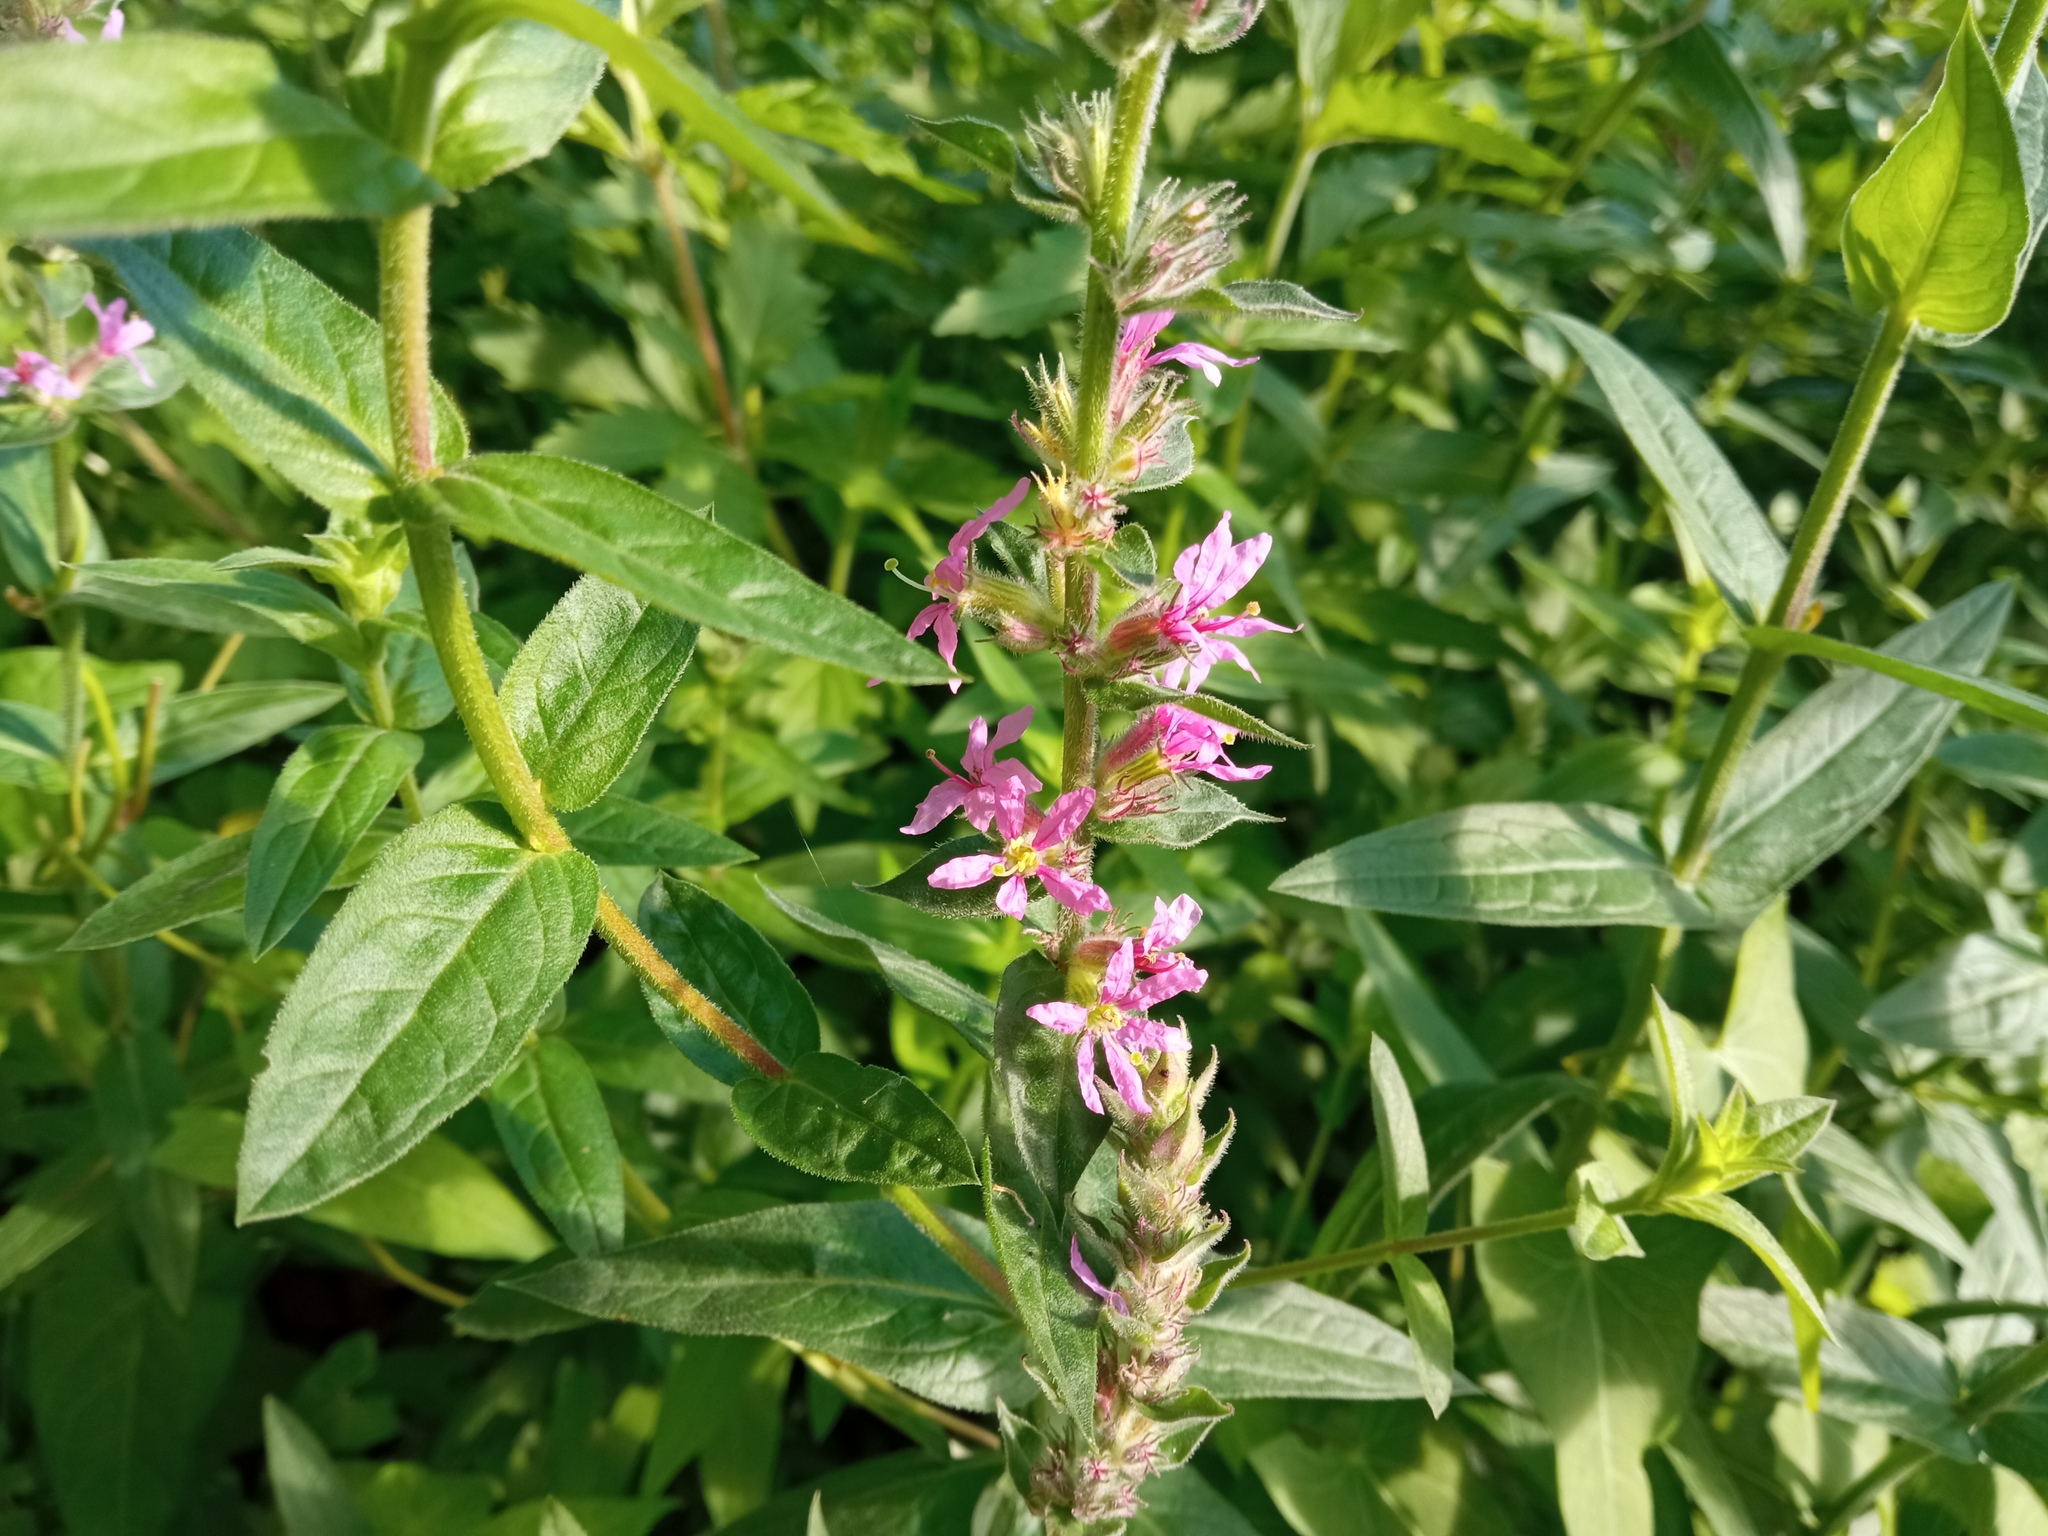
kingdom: Plantae
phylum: Tracheophyta
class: Magnoliopsida
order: Myrtales
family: Lythraceae
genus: Lythrum
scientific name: Lythrum salicaria
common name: Purple loosestrife
